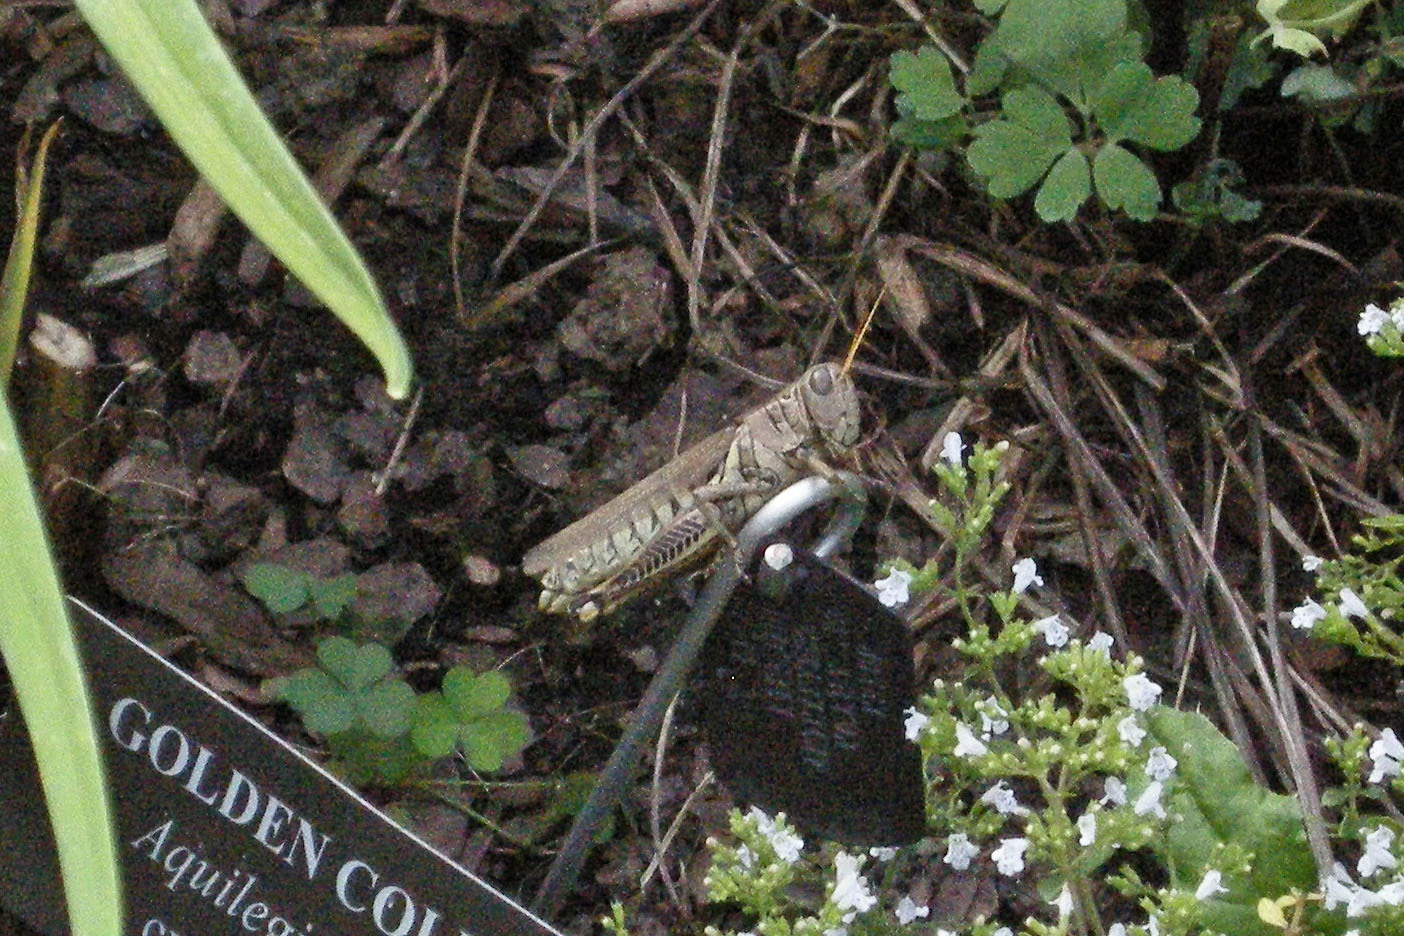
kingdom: Animalia
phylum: Arthropoda
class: Insecta
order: Orthoptera
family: Acrididae
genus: Melanoplus
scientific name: Melanoplus differentialis
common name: Differential grasshopper
